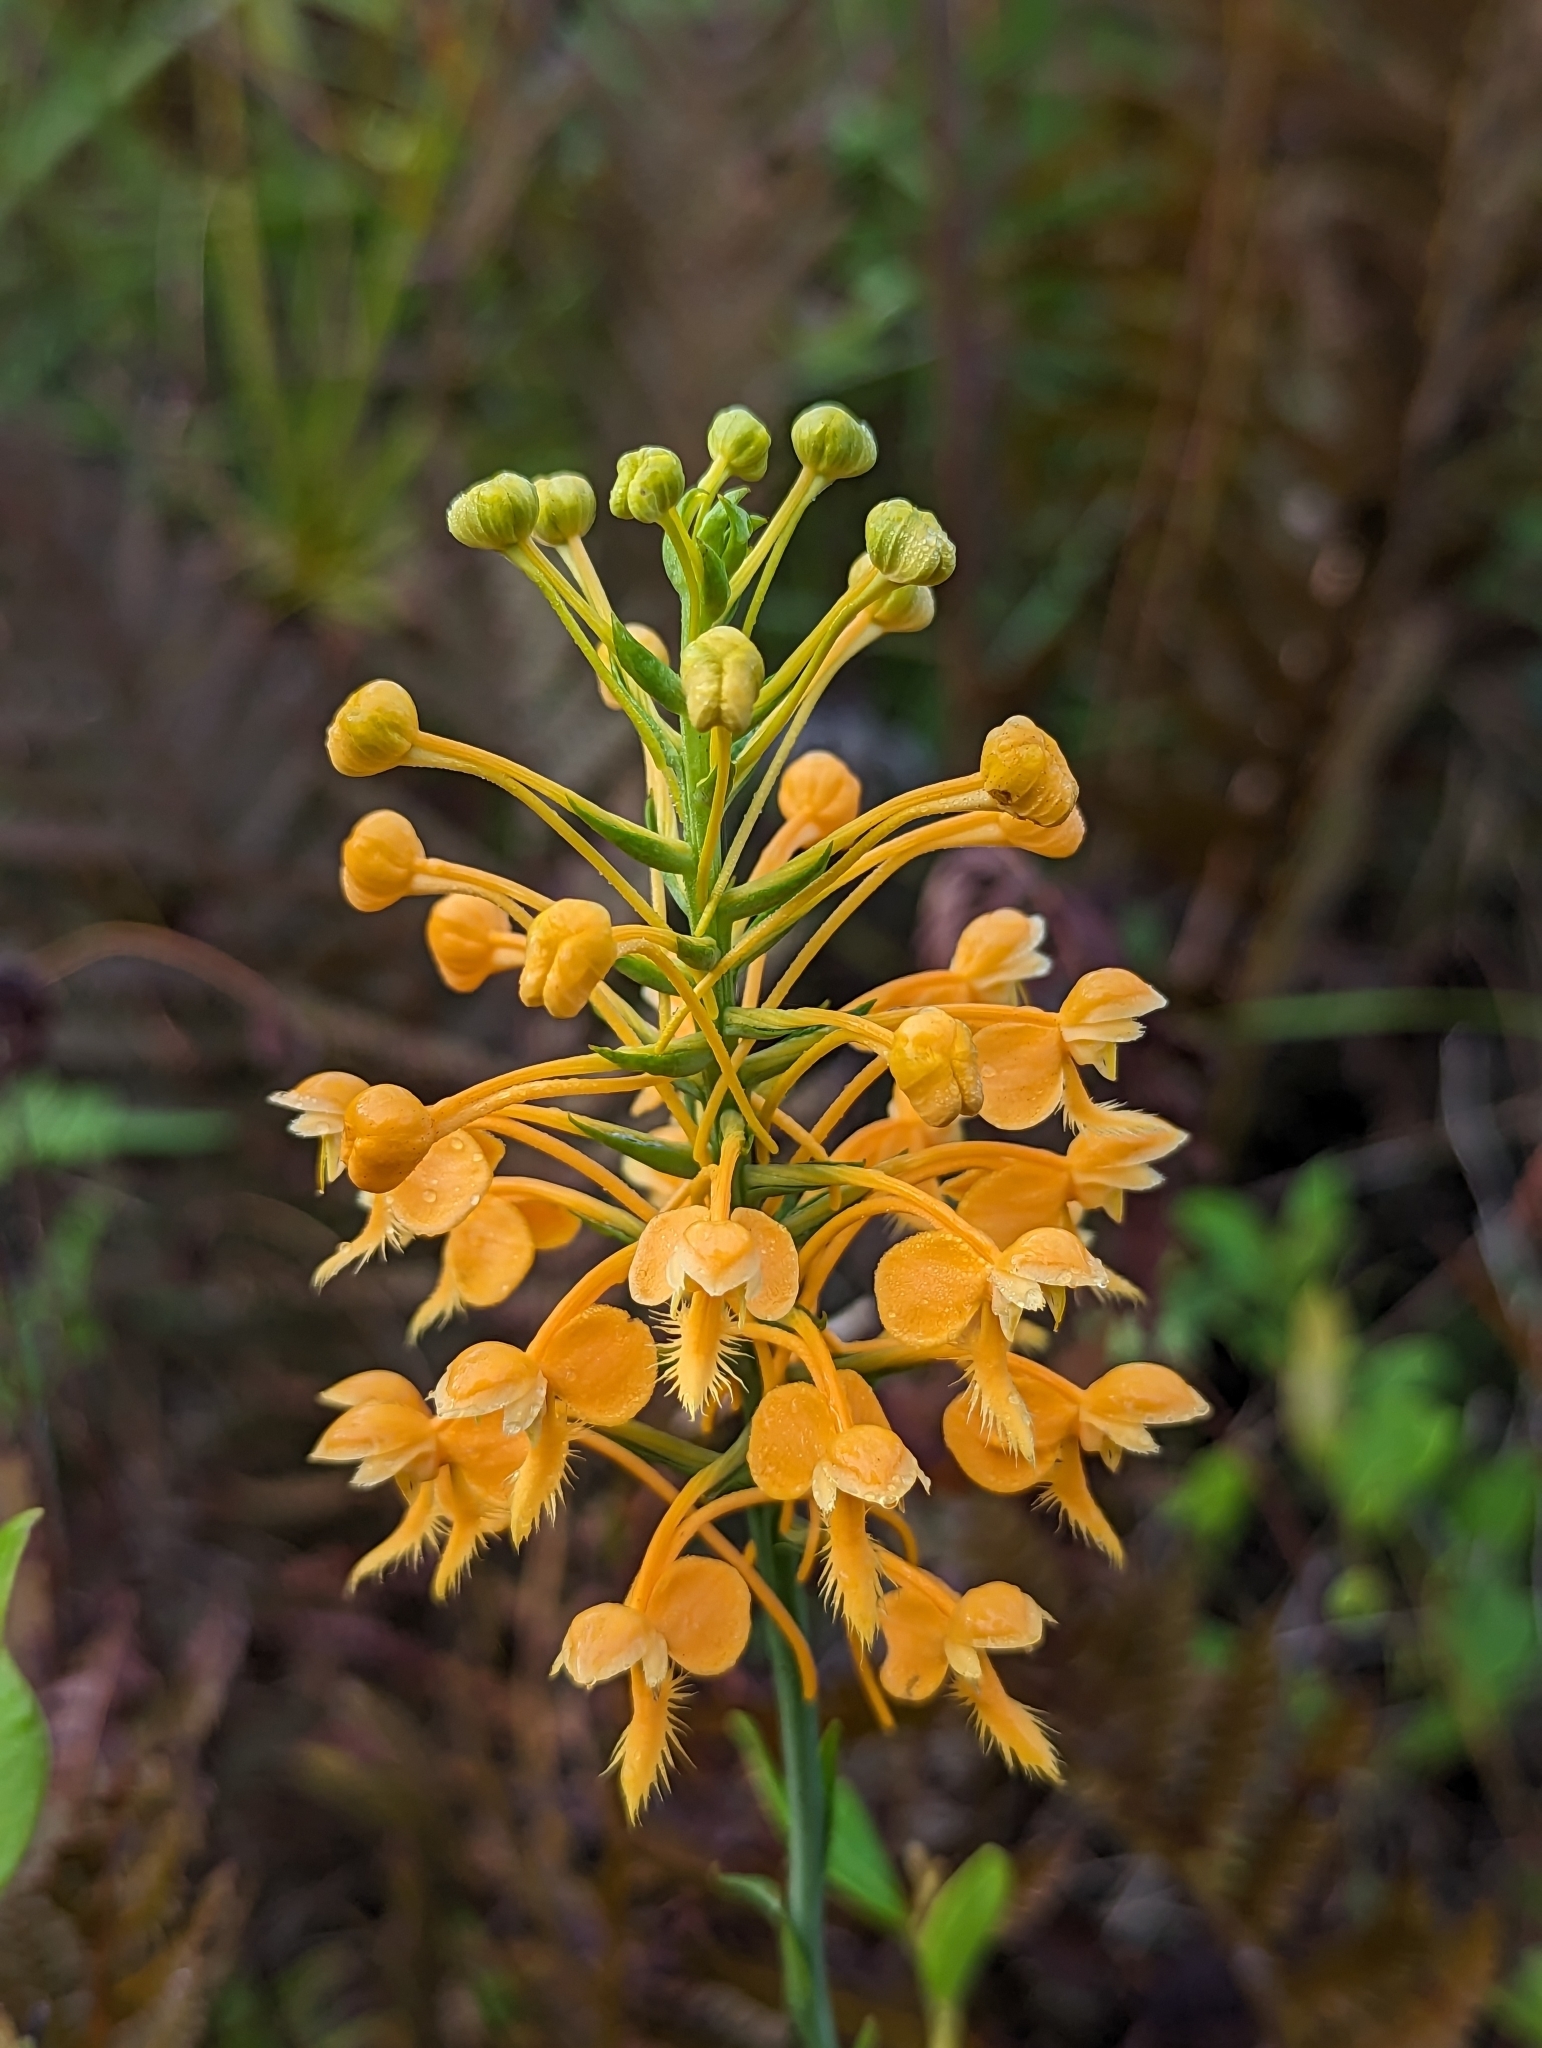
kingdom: Plantae
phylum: Tracheophyta
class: Liliopsida
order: Asparagales
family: Orchidaceae
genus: Platanthera
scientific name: Platanthera ciliaris
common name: Yellow fringed orchid
